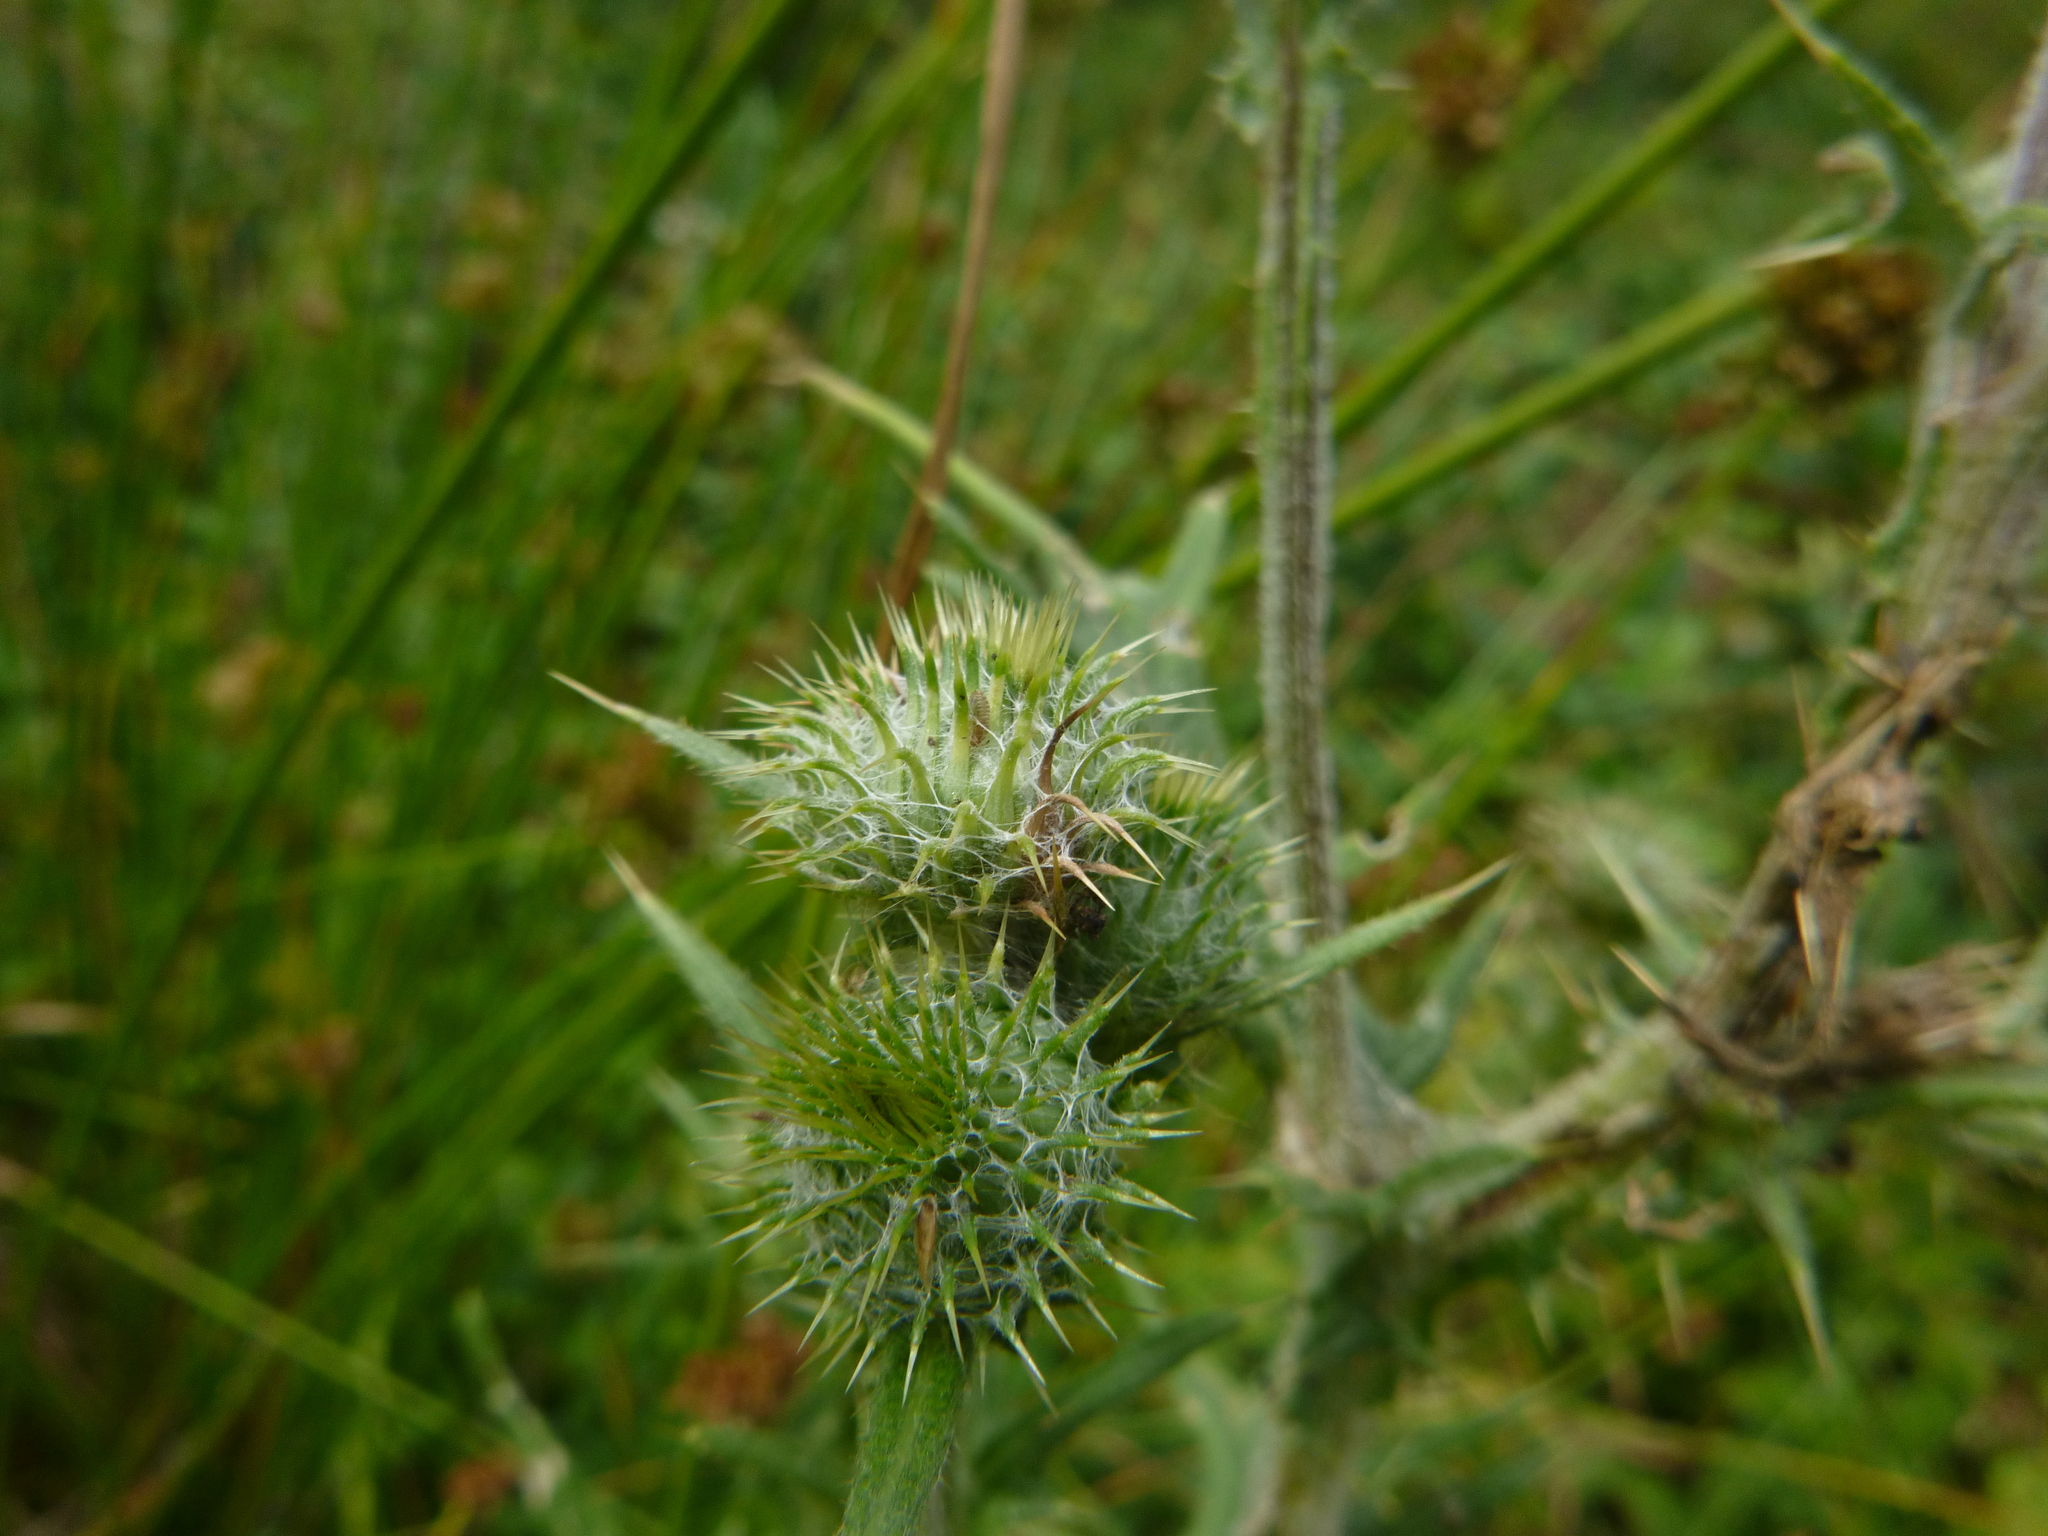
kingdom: Plantae
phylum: Tracheophyta
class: Magnoliopsida
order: Asterales
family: Asteraceae
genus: Cirsium
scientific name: Cirsium vulgare
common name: Bull thistle
